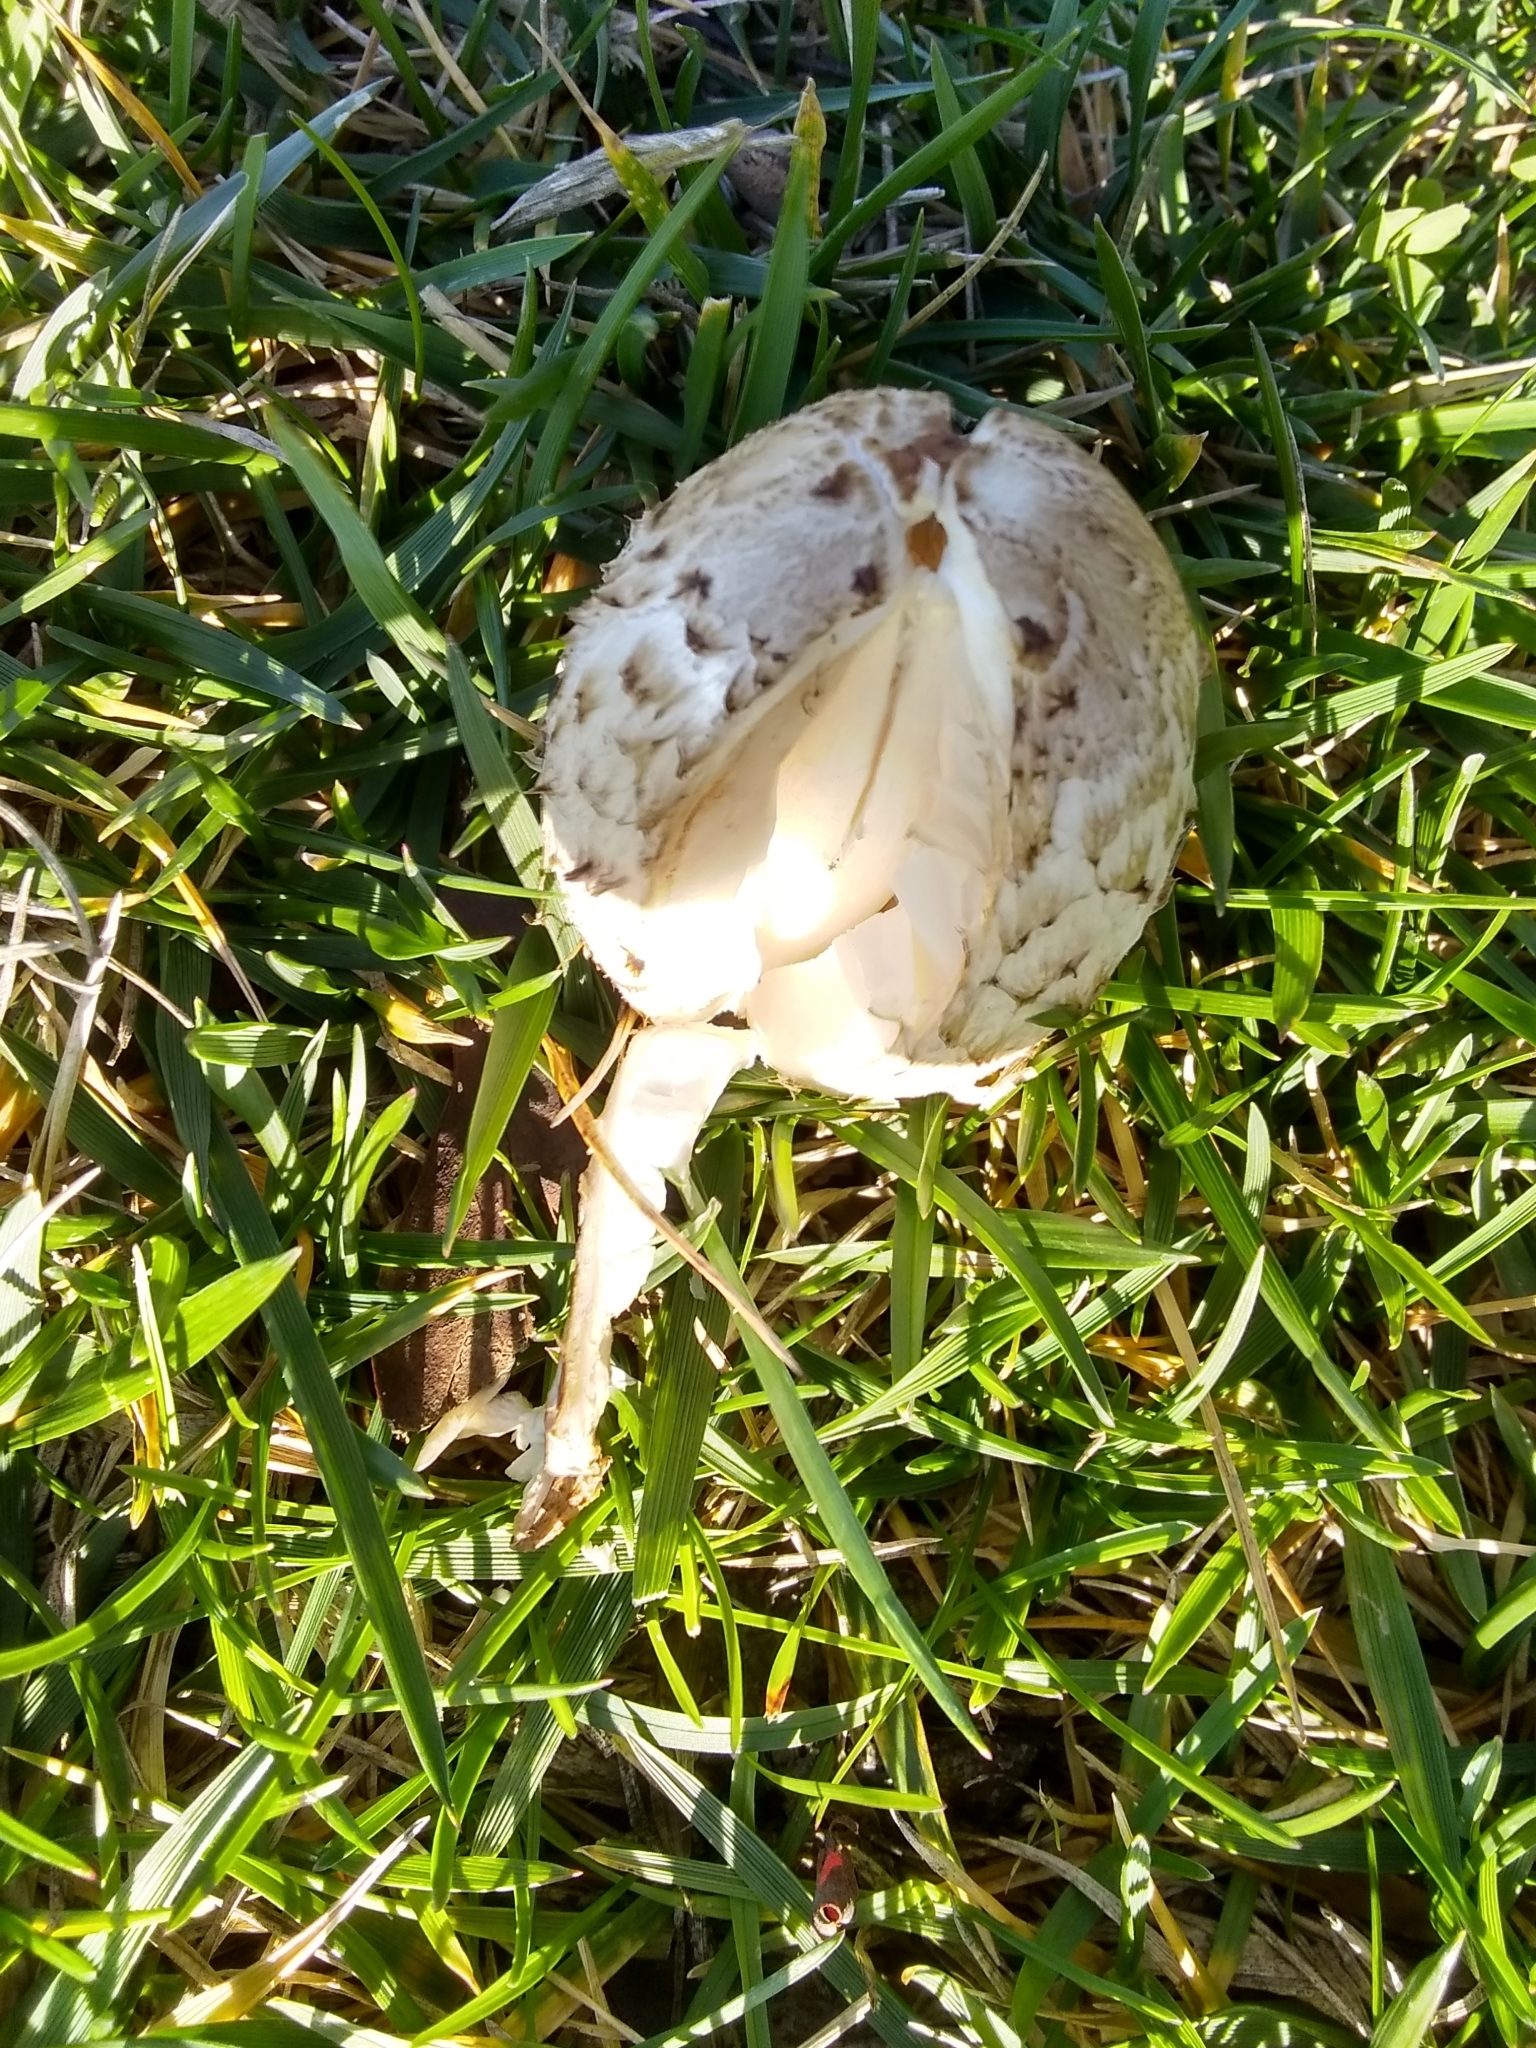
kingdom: Fungi
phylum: Basidiomycota
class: Agaricomycetes
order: Agaricales
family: Agaricaceae
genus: Coprinus
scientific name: Coprinus comatus
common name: Lawyer's wig
